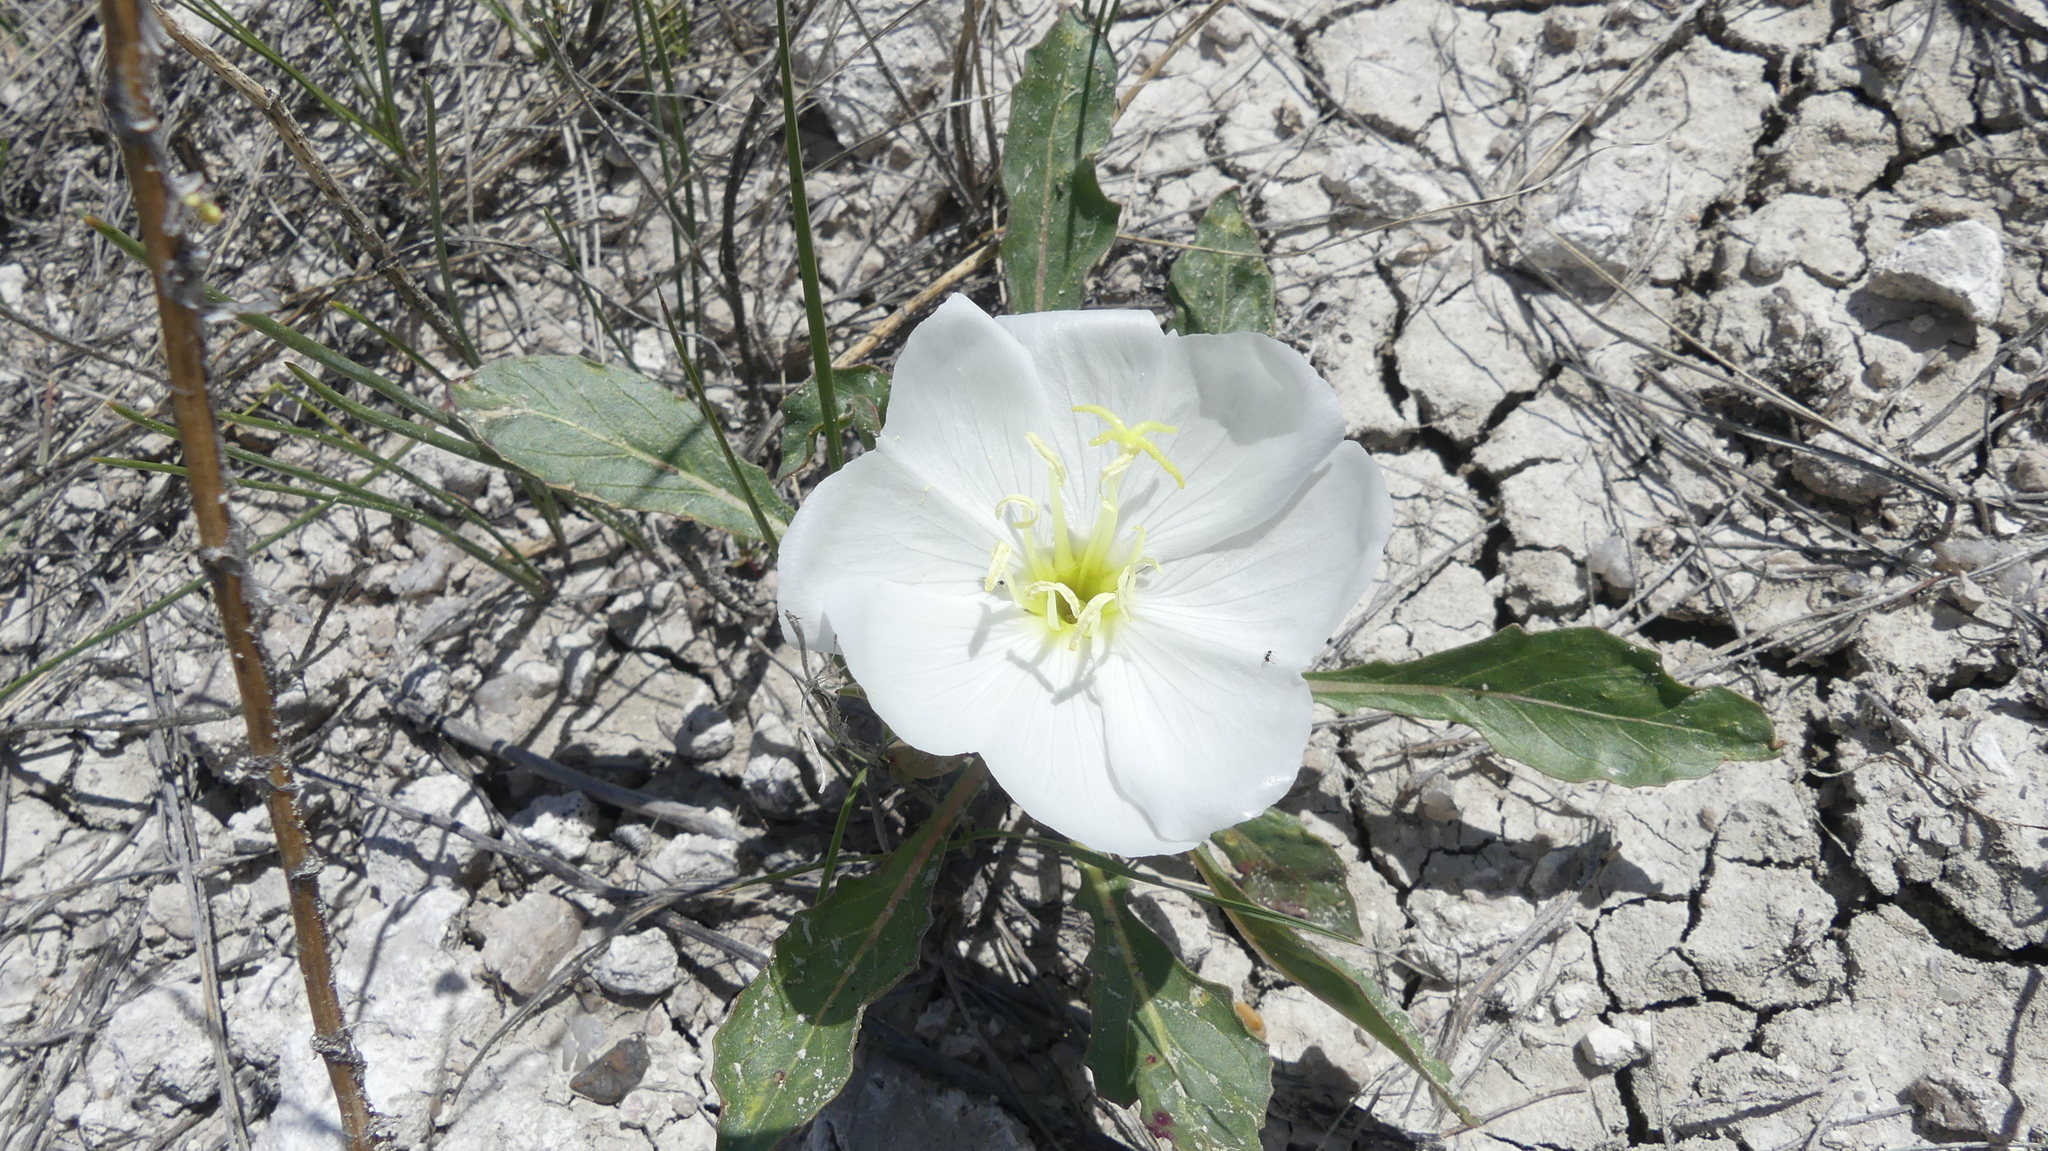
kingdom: Plantae
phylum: Tracheophyta
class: Magnoliopsida
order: Myrtales
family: Onagraceae
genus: Oenothera
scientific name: Oenothera cespitosa
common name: Tufted evening-primrose
